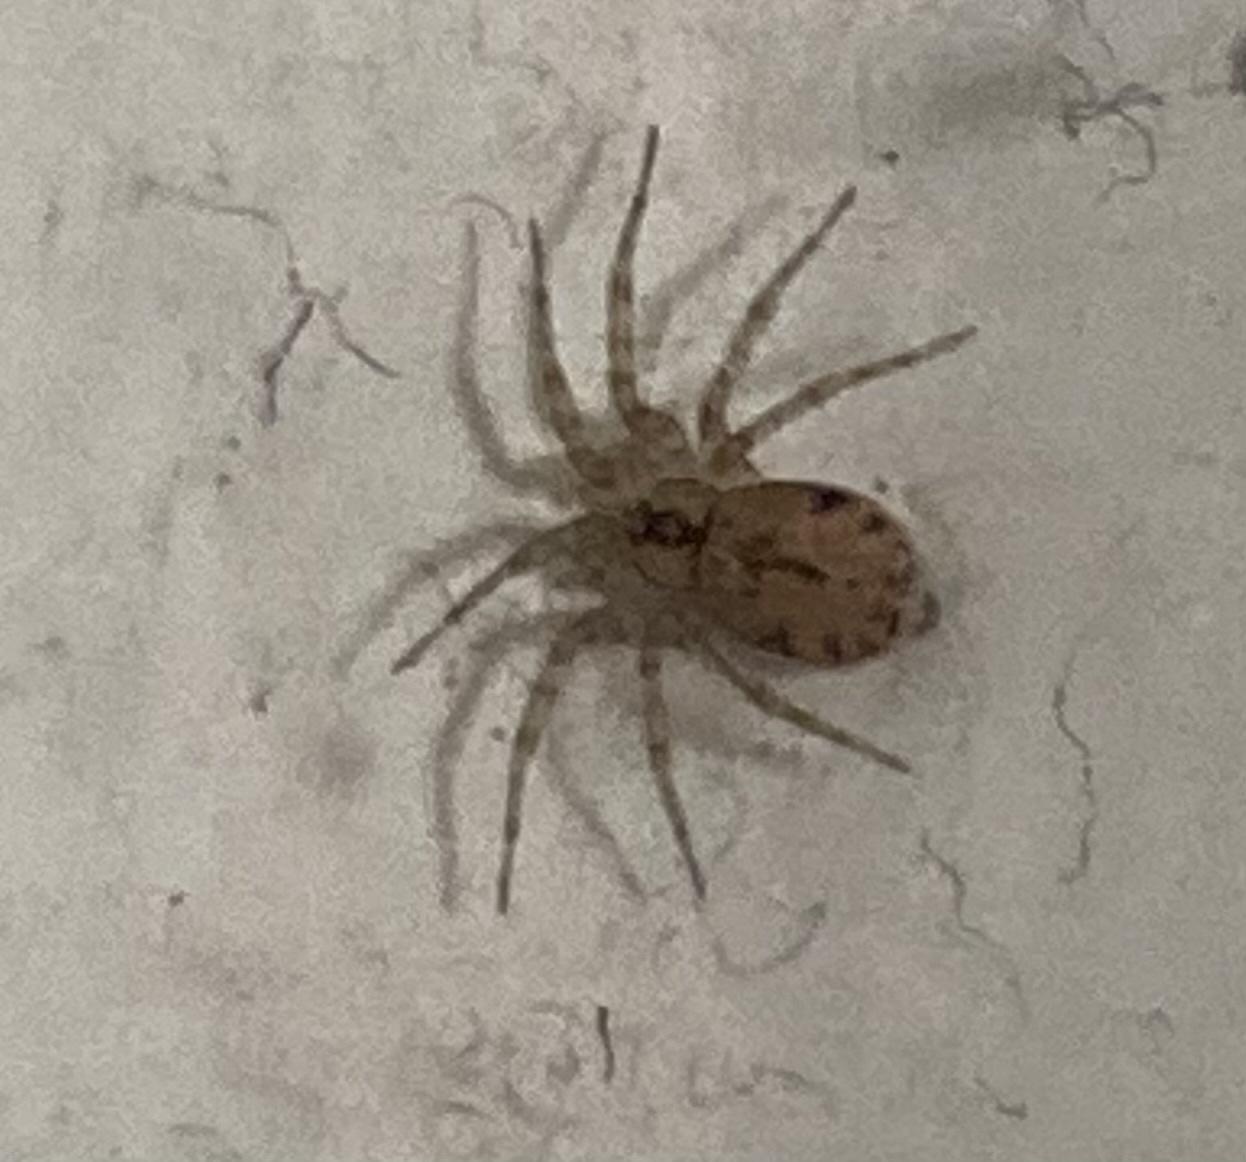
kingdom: Animalia
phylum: Arthropoda
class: Arachnida
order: Araneae
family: Oecobiidae
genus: Oecobius
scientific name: Oecobius navus
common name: Flatmesh weaver
